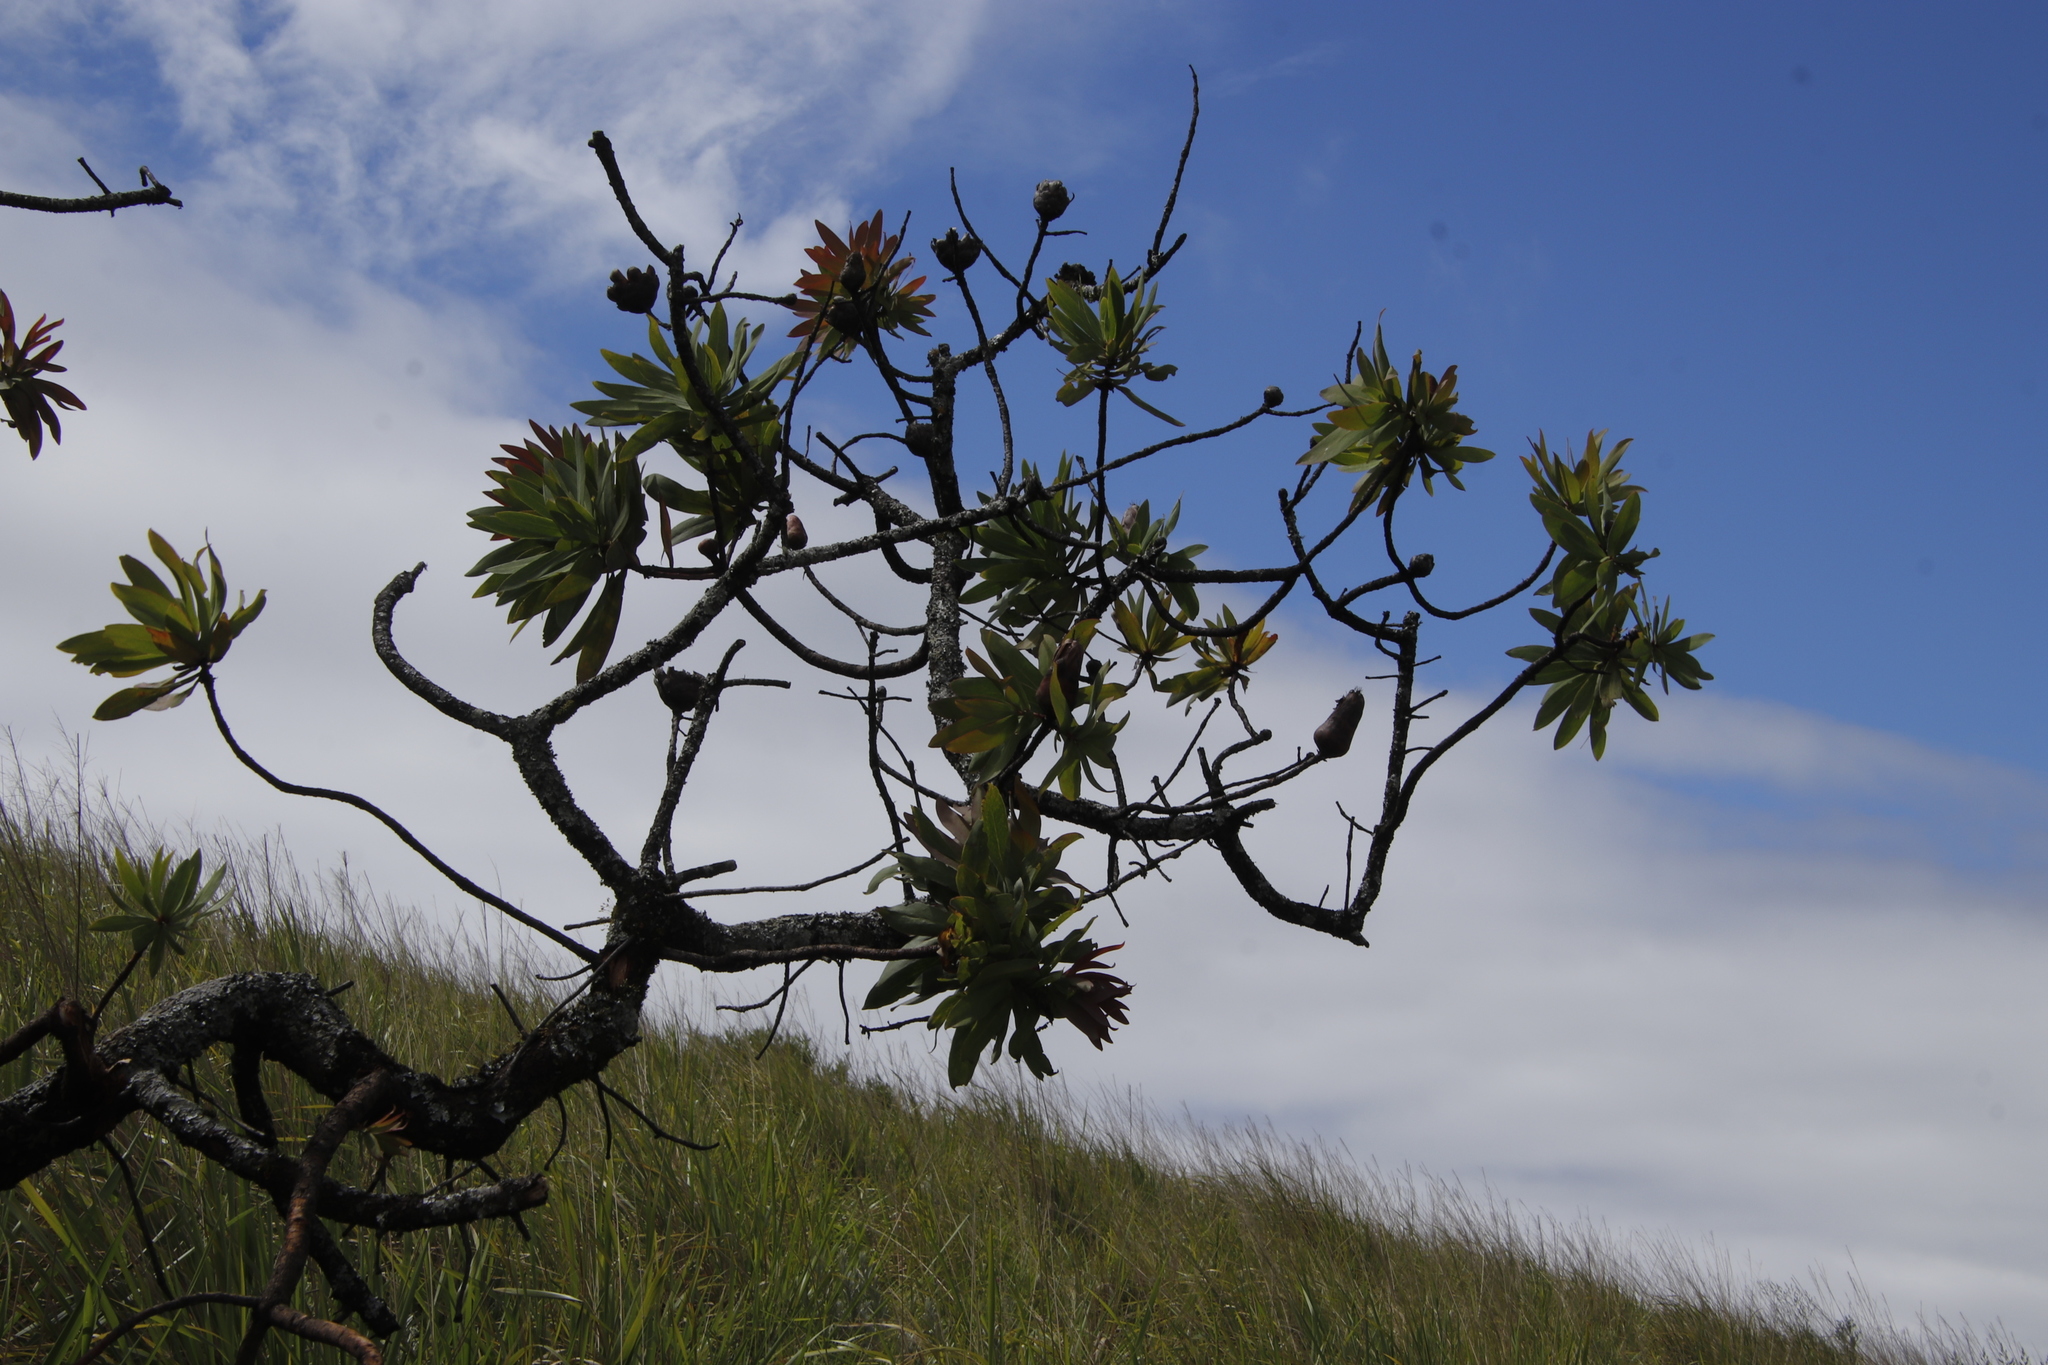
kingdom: Plantae
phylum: Tracheophyta
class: Magnoliopsida
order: Proteales
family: Proteaceae
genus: Protea
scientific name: Protea caffra
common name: Common sugarbush
